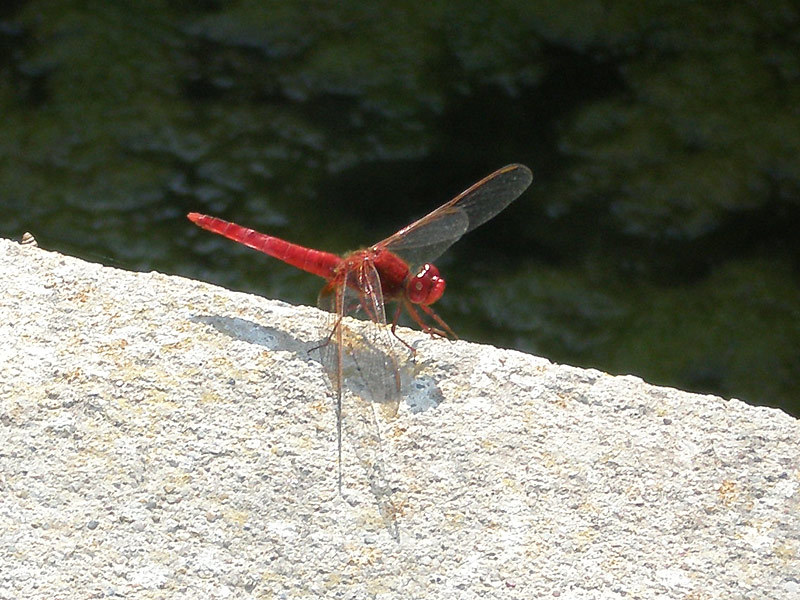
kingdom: Animalia
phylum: Arthropoda
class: Insecta
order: Odonata
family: Libellulidae
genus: Crocothemis
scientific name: Crocothemis erythraea
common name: Scarlet dragonfly
